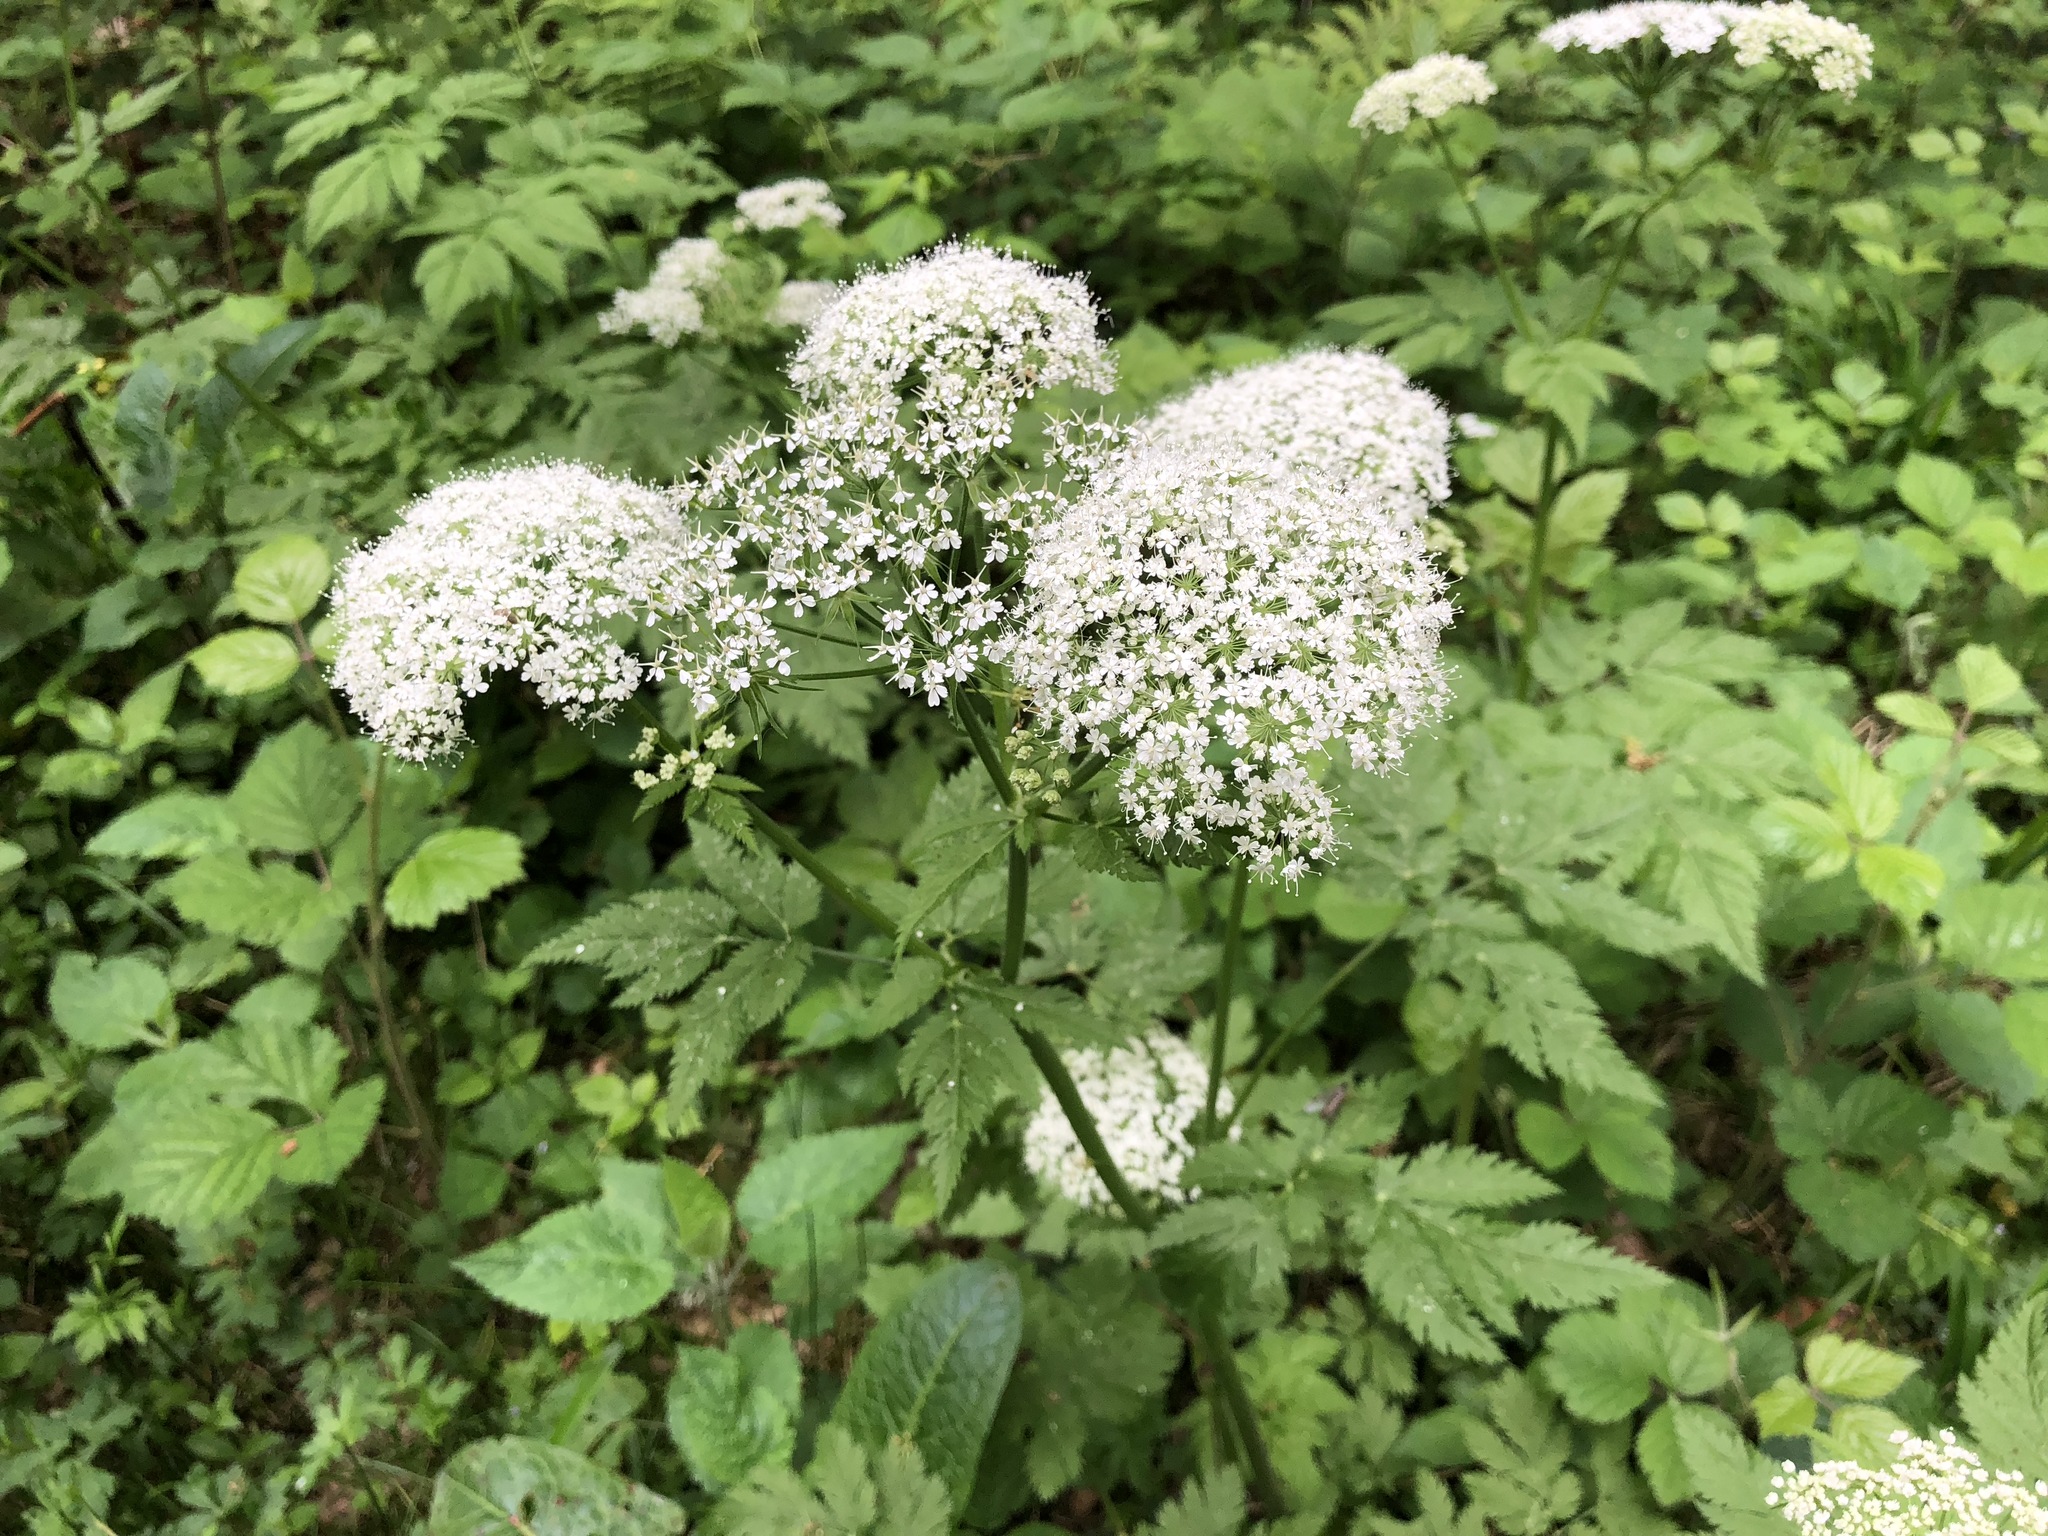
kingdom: Plantae
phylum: Tracheophyta
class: Magnoliopsida
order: Apiales
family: Apiaceae
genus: Chaerophyllum
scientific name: Chaerophyllum hirsutum
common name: Hairy chervil
